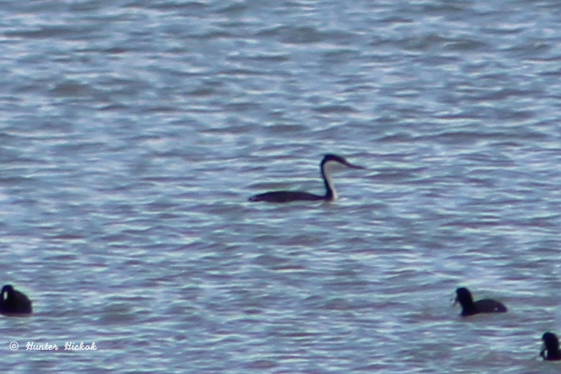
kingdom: Animalia
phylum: Chordata
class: Aves
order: Podicipediformes
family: Podicipedidae
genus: Aechmophorus
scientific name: Aechmophorus occidentalis
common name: Western grebe
